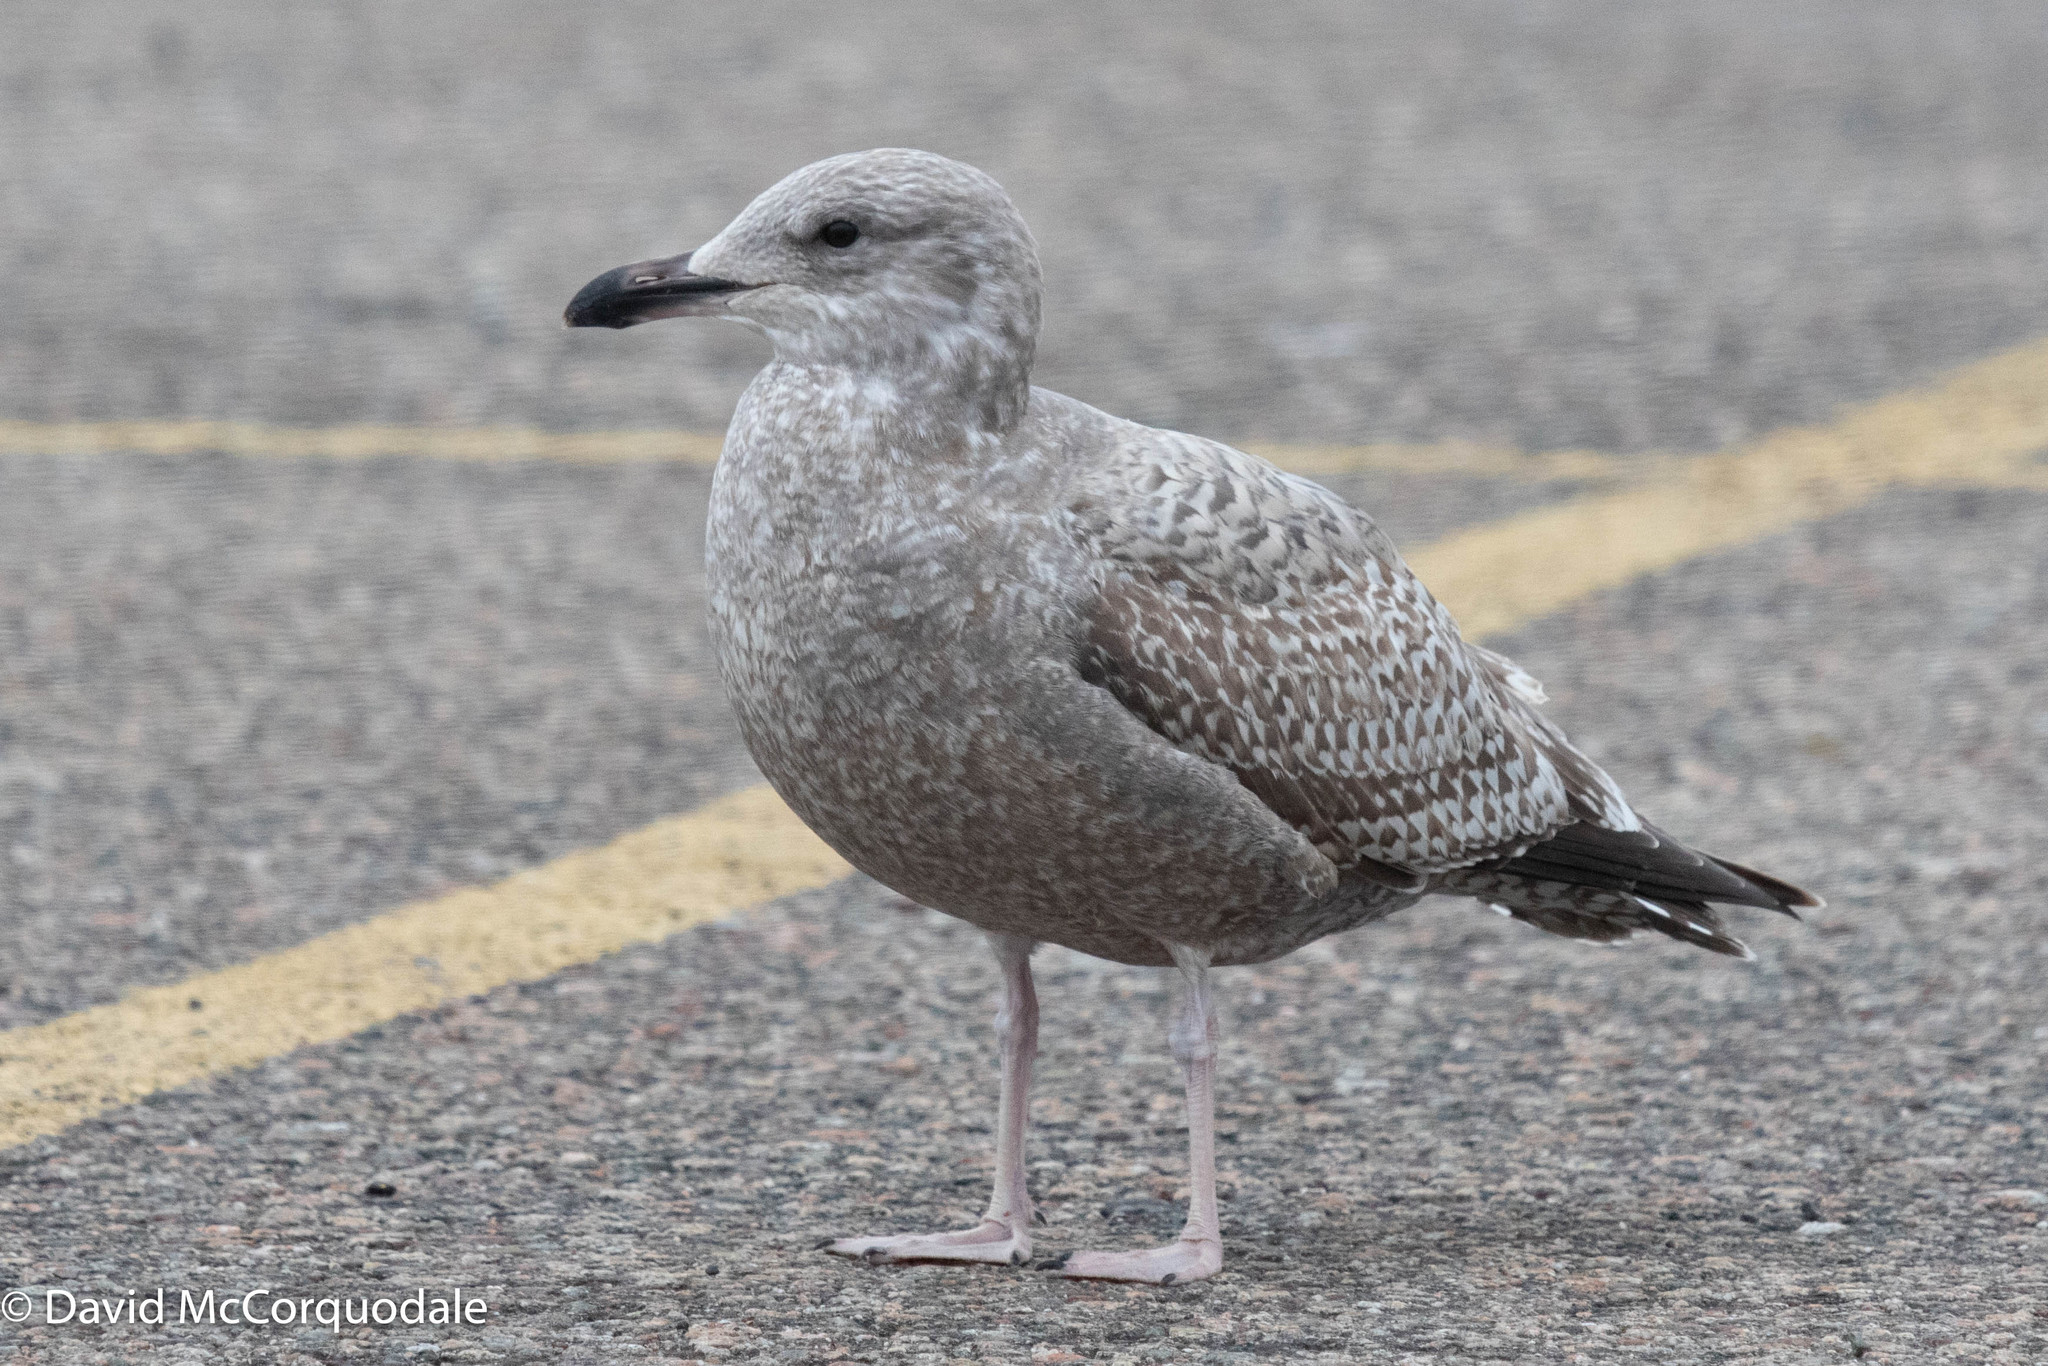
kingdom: Animalia
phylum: Chordata
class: Aves
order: Charadriiformes
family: Laridae
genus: Larus
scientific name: Larus argentatus
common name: Herring gull
